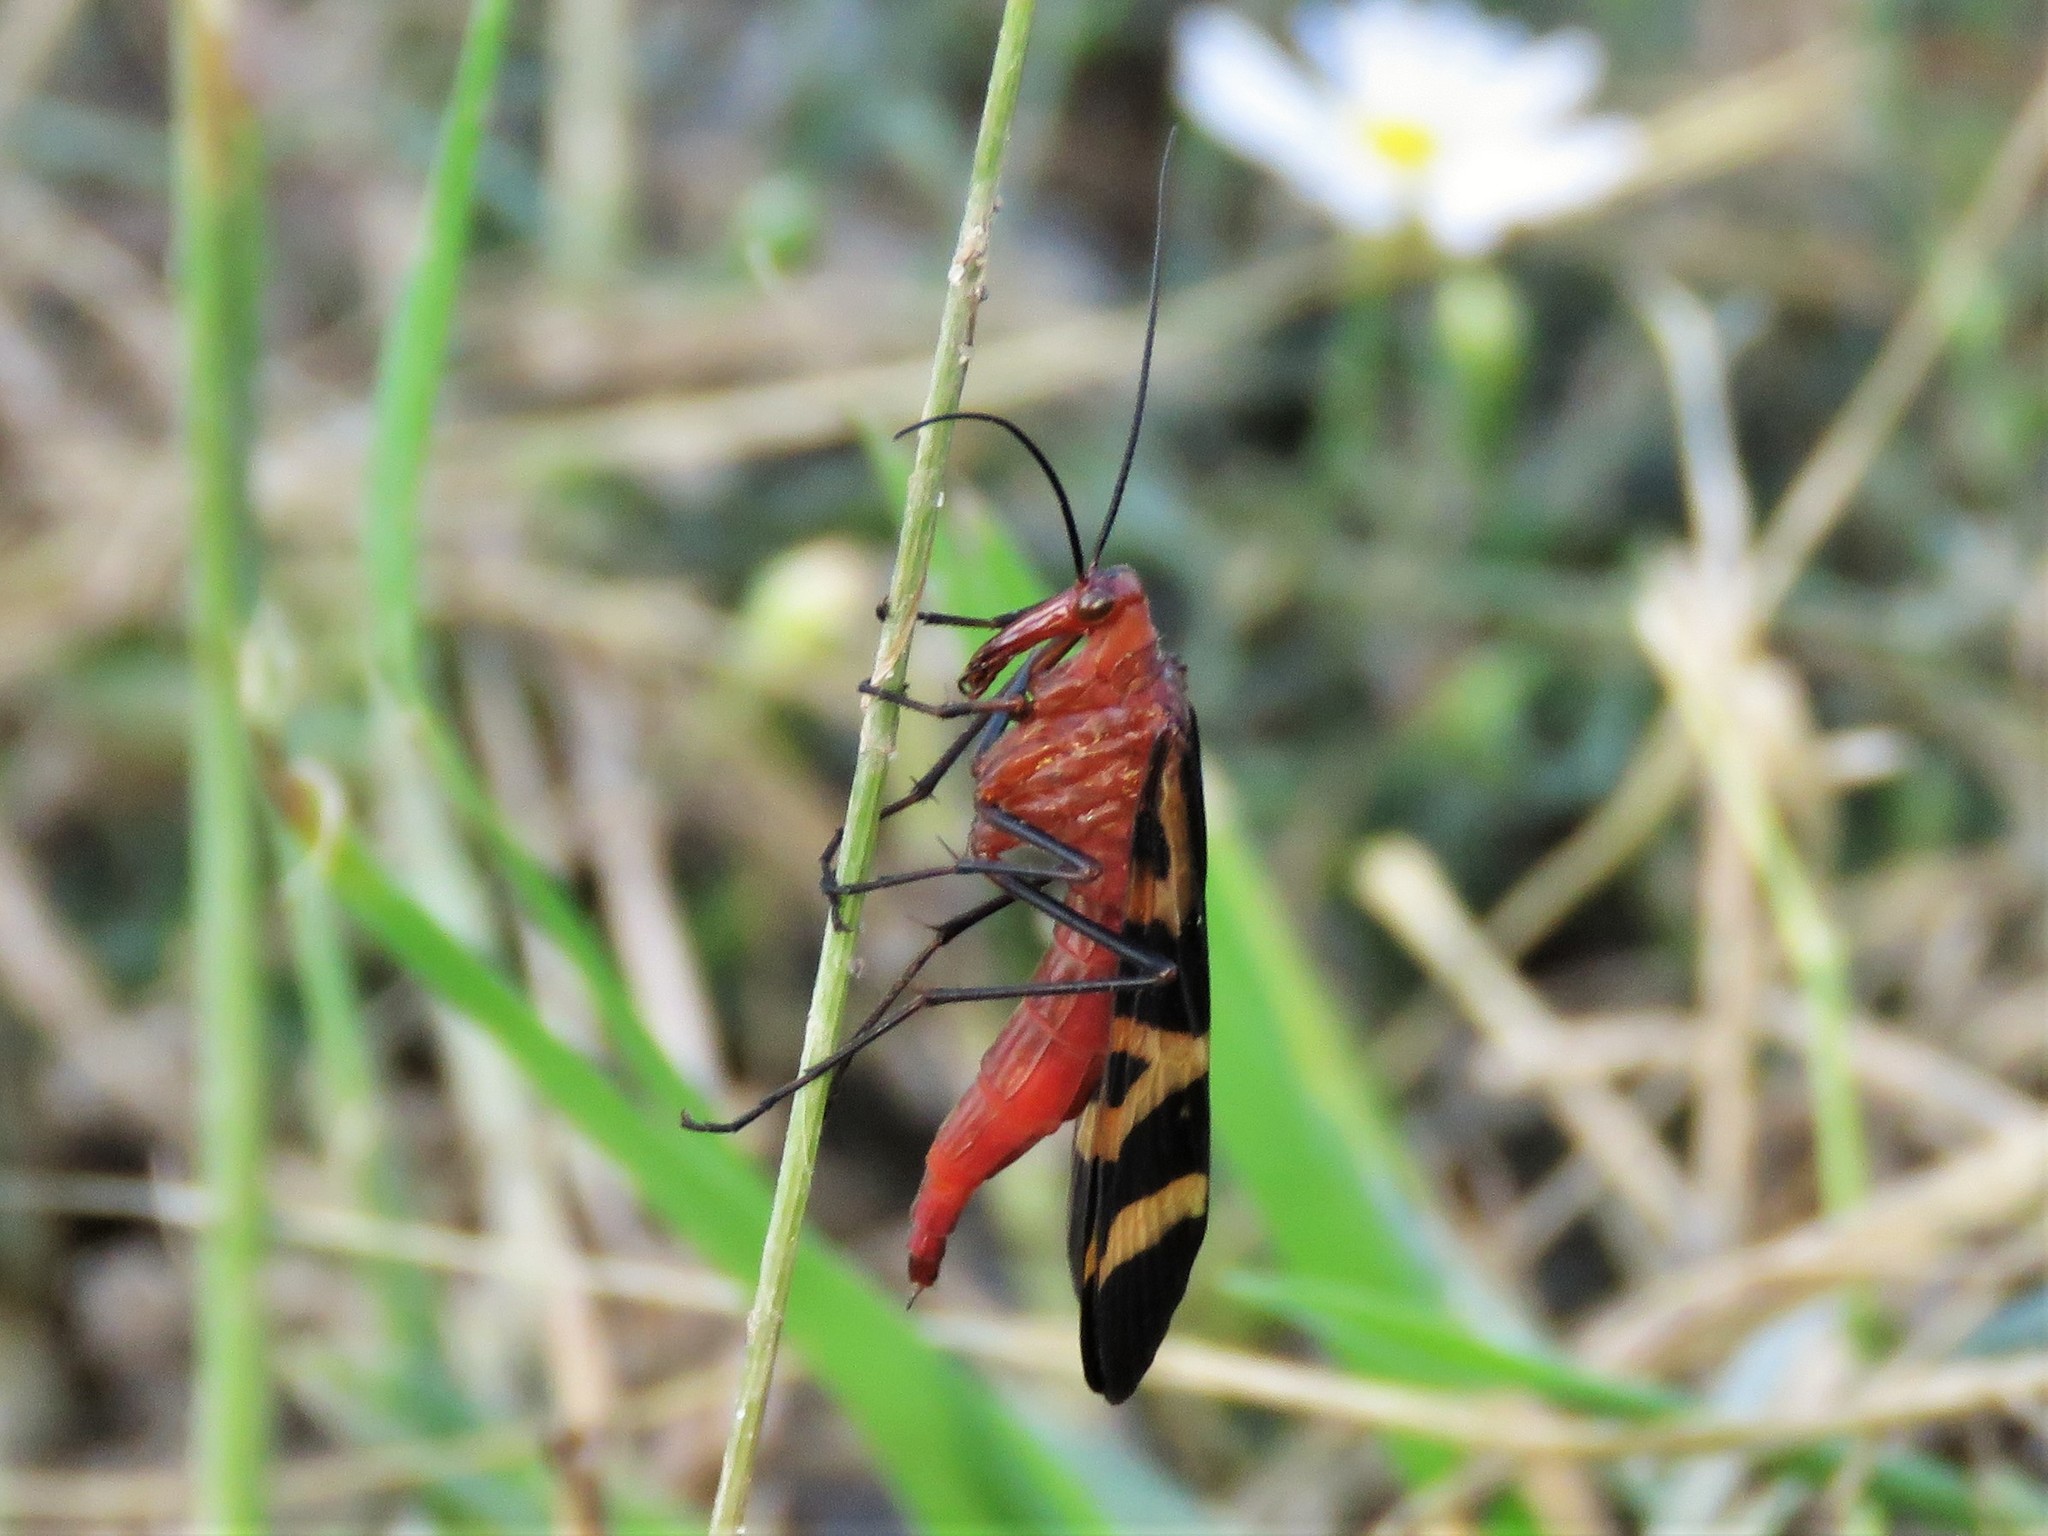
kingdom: Animalia
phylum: Arthropoda
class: Insecta
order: Mecoptera
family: Panorpidae
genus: Panorpa
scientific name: Panorpa nuptialis
